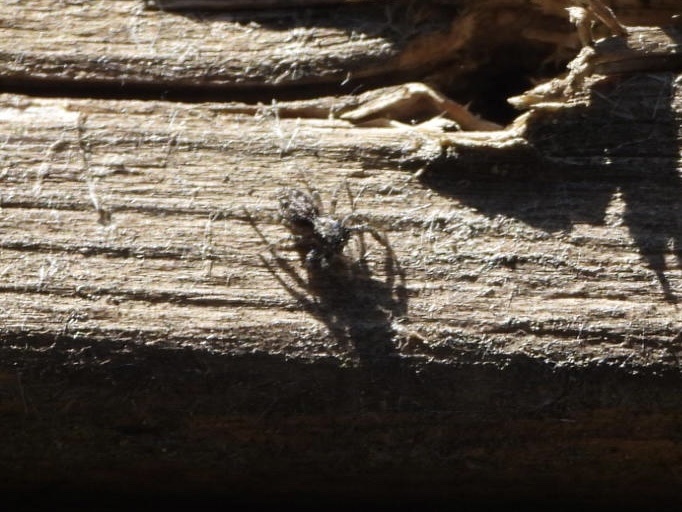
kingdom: Animalia
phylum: Arthropoda
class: Arachnida
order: Araneae
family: Salticidae
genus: Platycryptus
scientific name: Platycryptus californicus
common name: Jumping spiders
